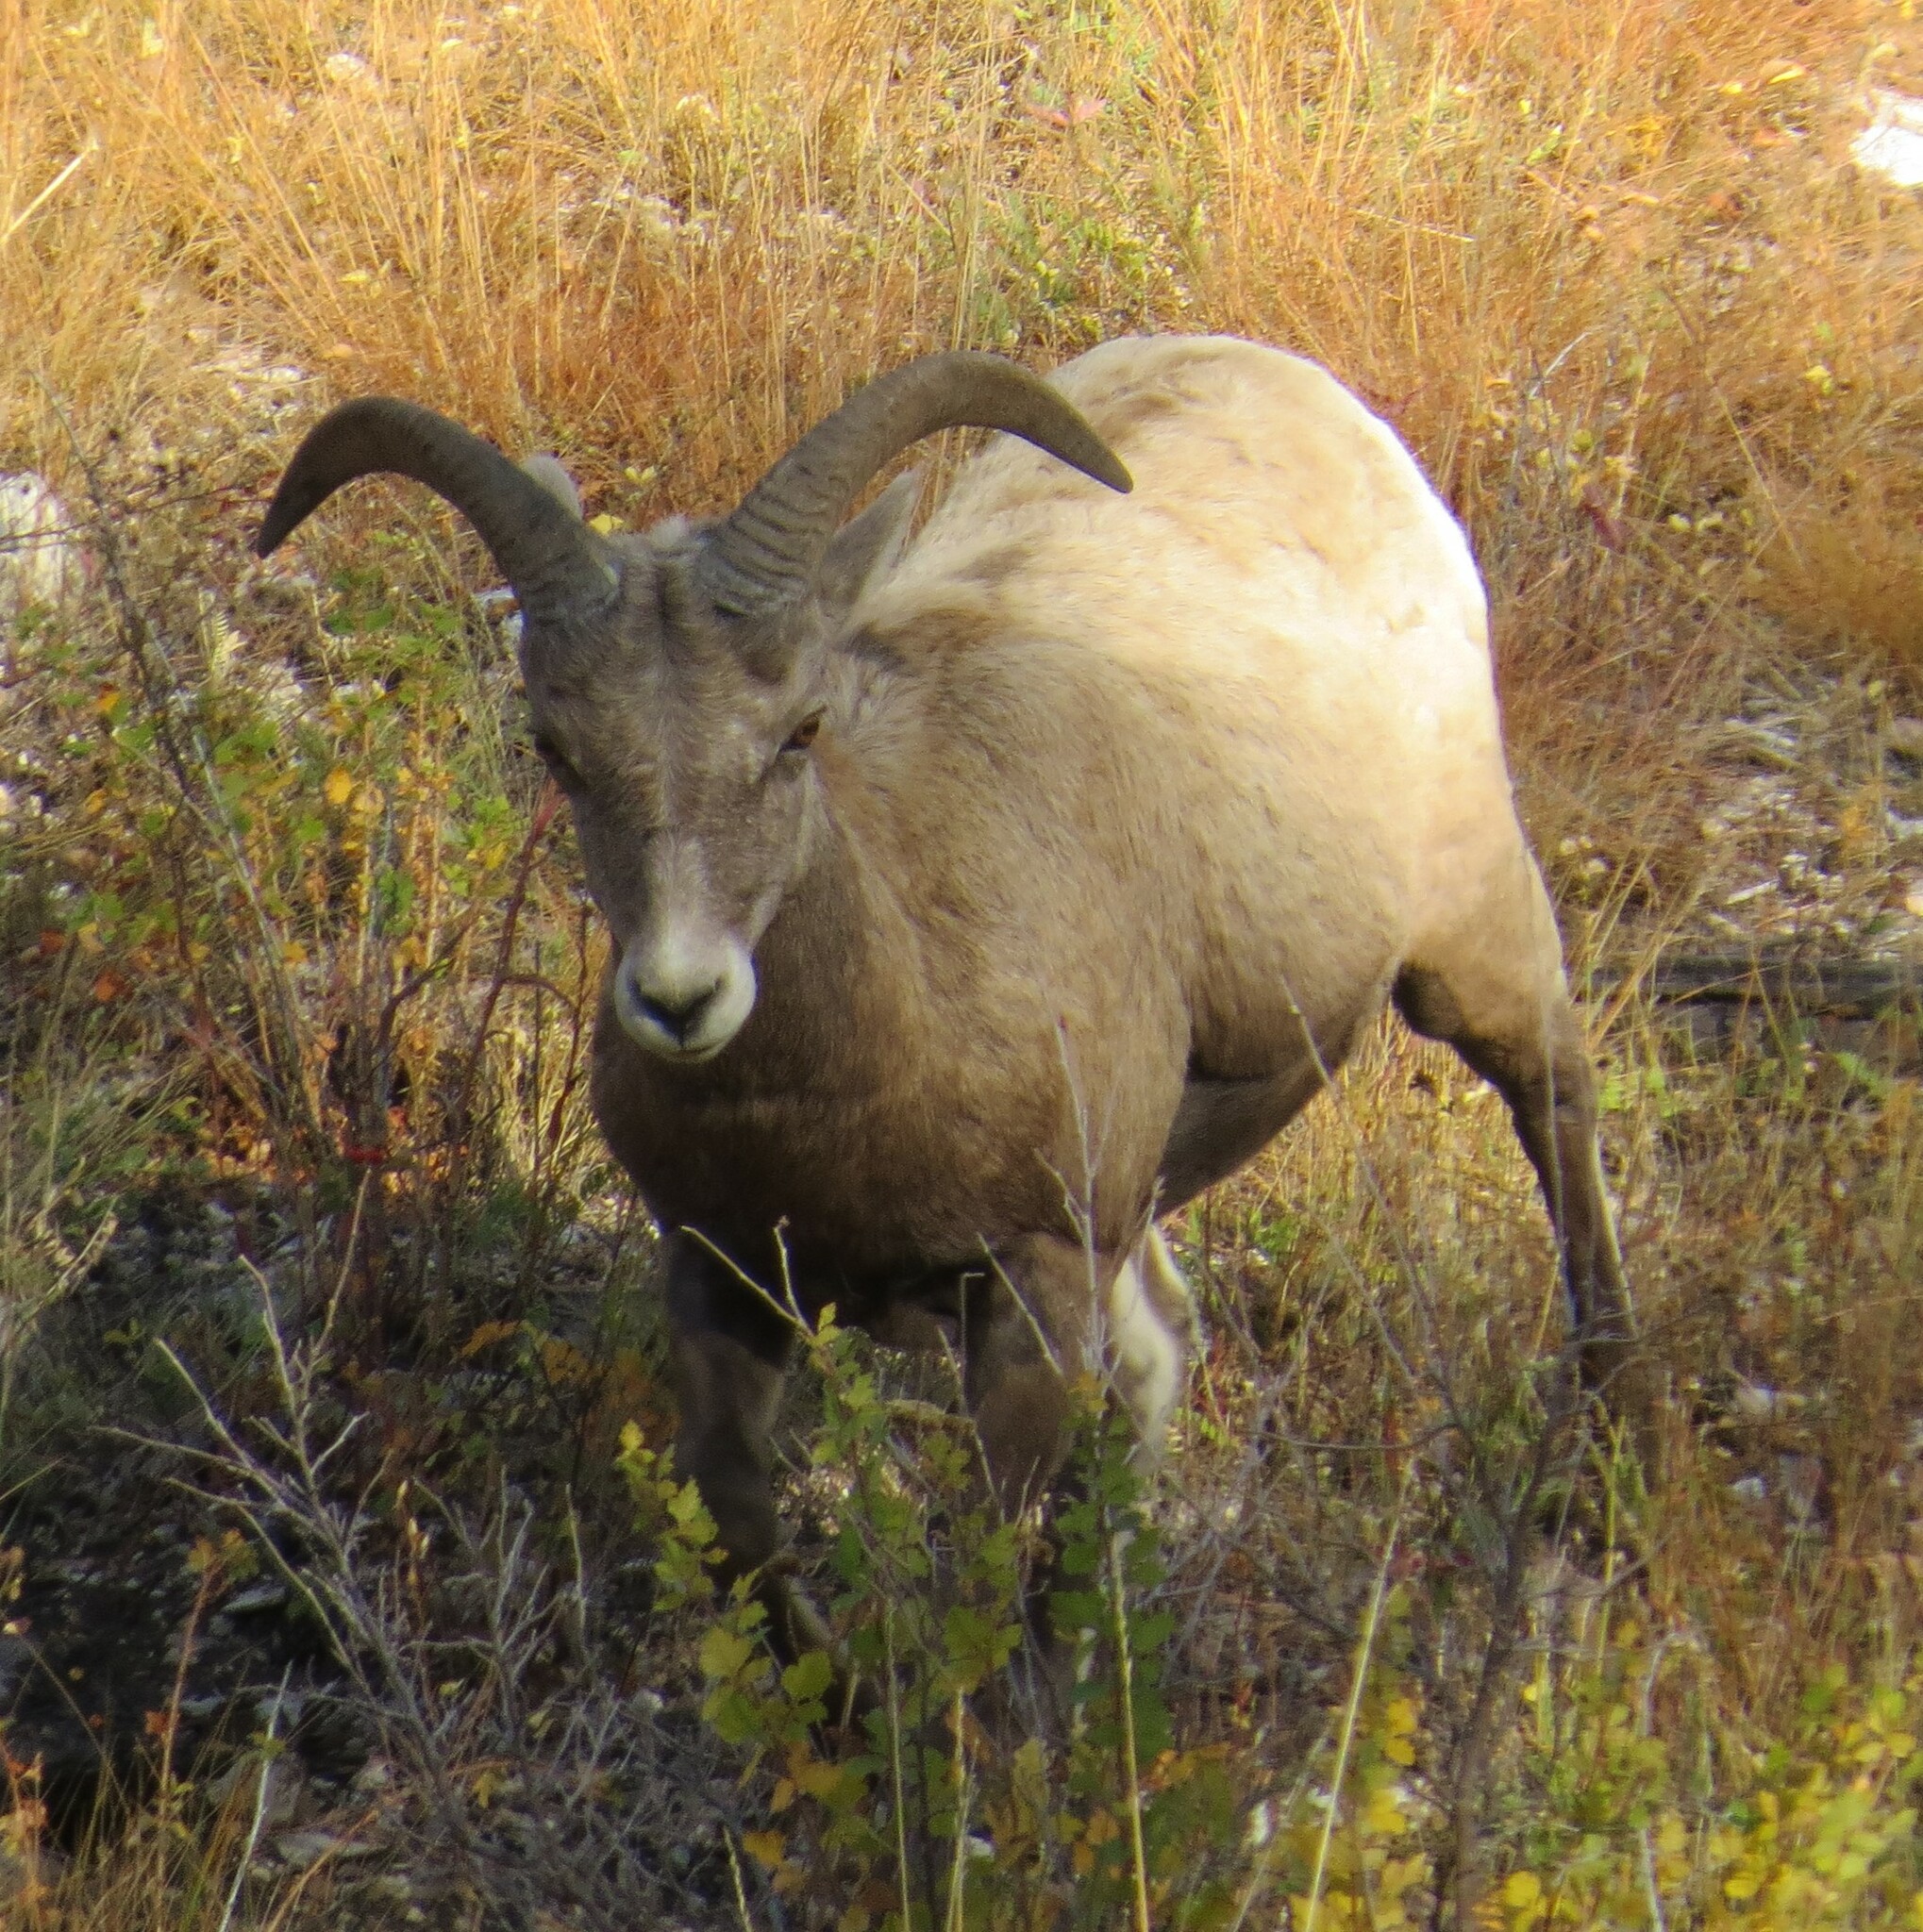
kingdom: Animalia
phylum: Chordata
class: Mammalia
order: Artiodactyla
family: Bovidae
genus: Ovis
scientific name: Ovis canadensis
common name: Bighorn sheep
